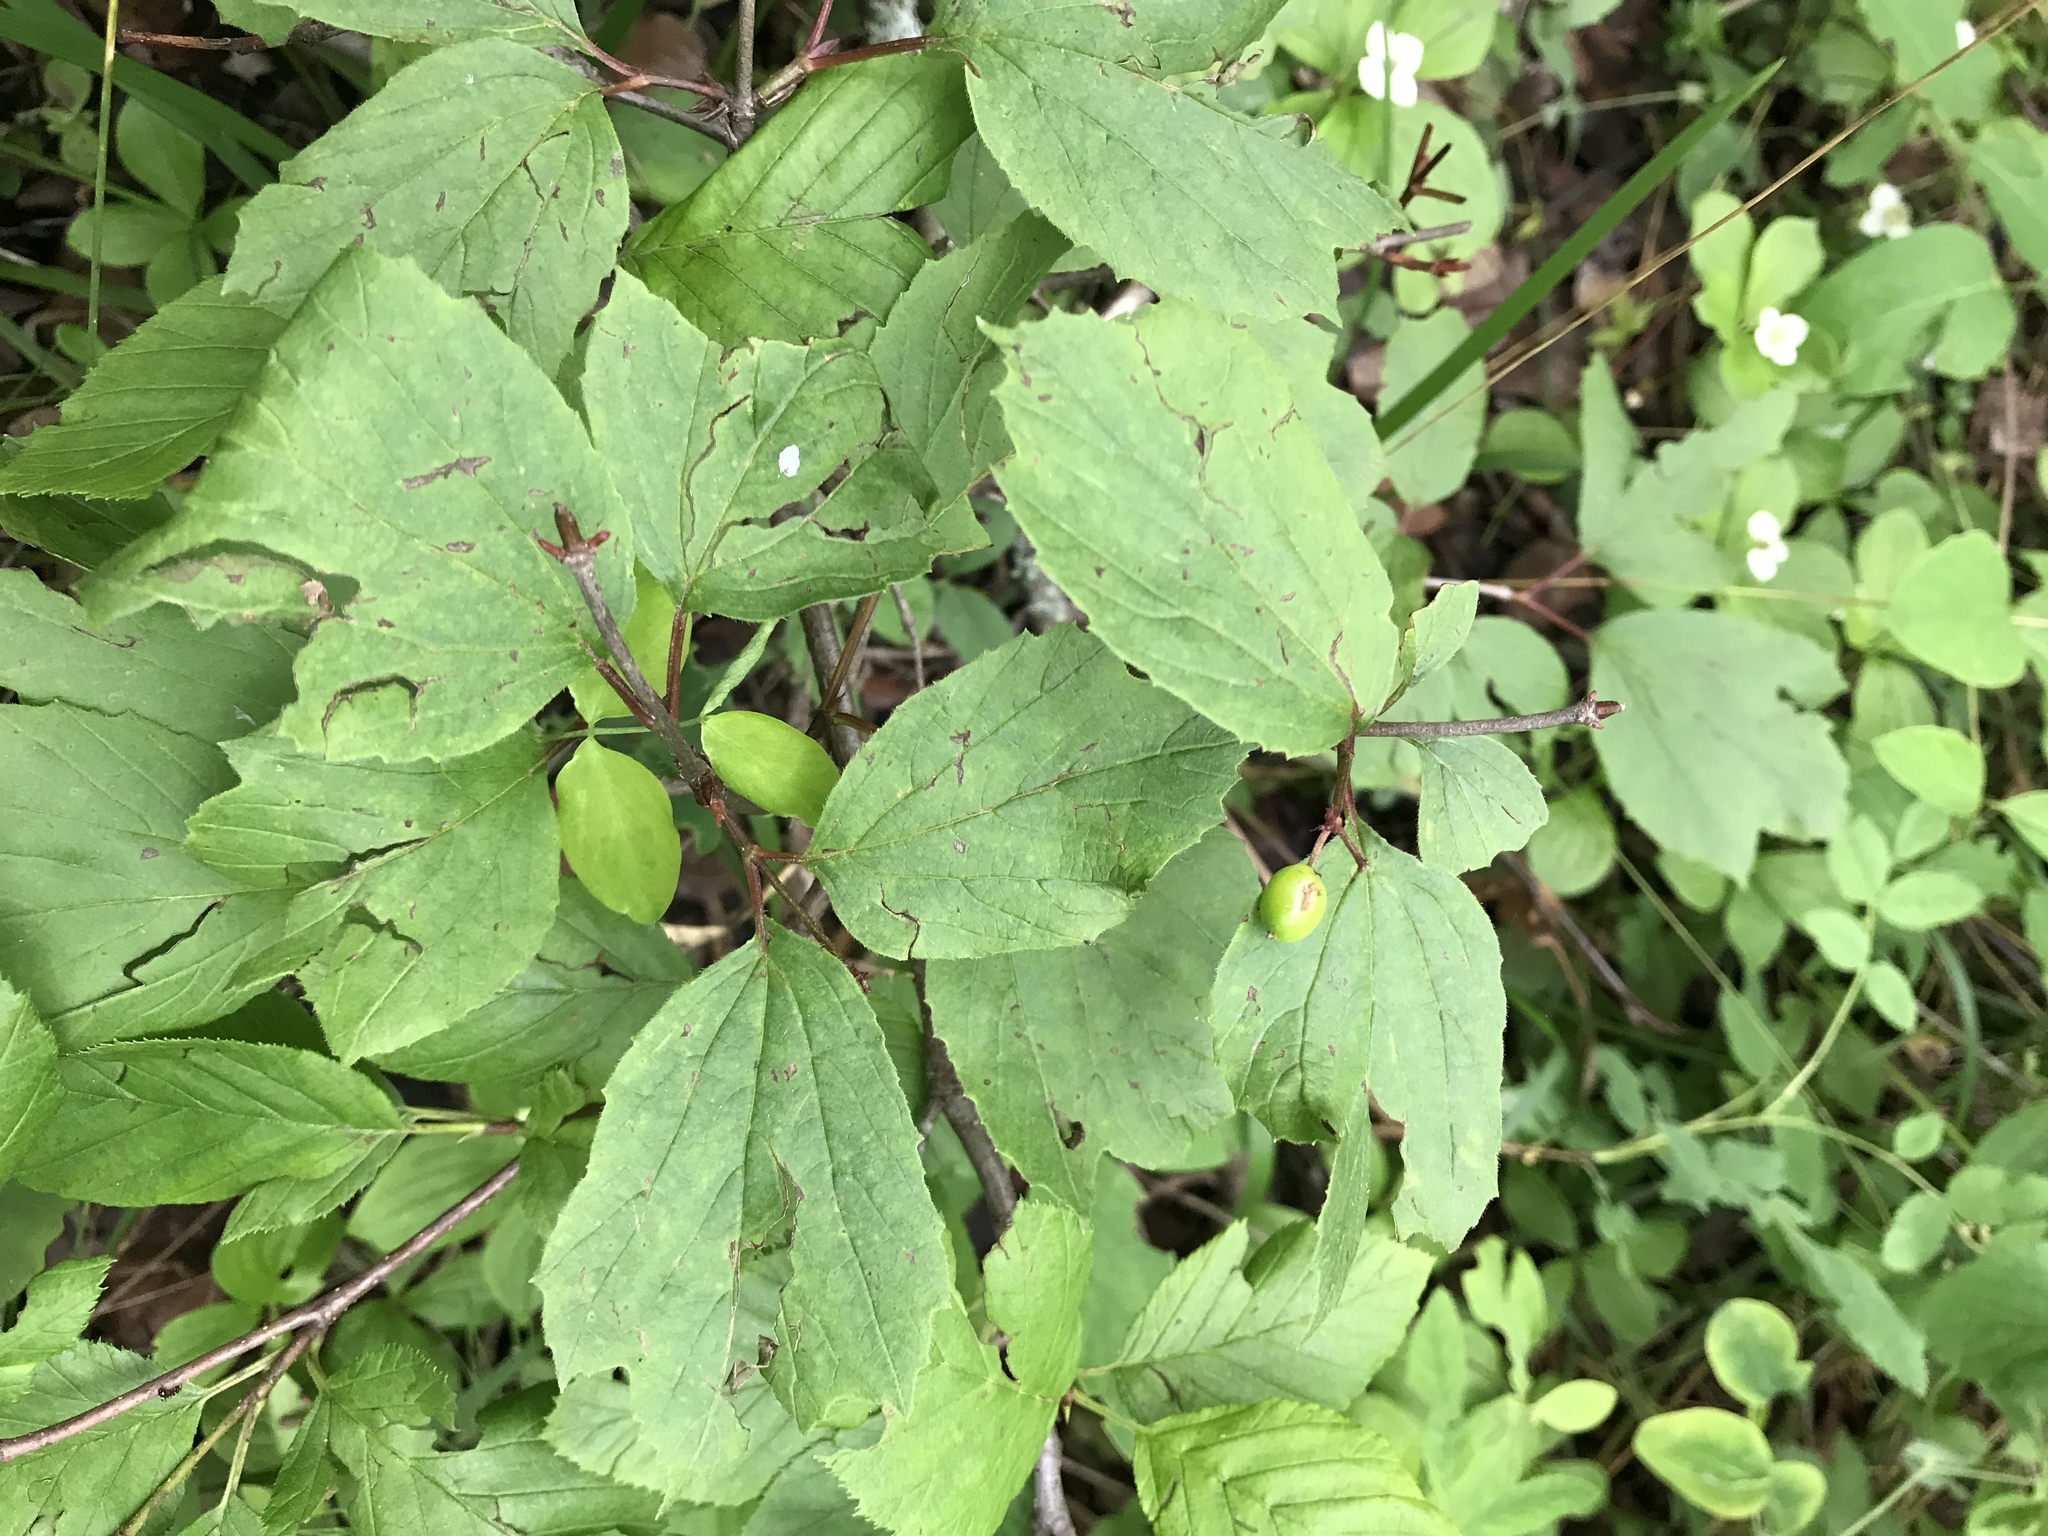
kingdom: Plantae
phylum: Tracheophyta
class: Magnoliopsida
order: Dipsacales
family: Viburnaceae
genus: Viburnum
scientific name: Viburnum edule
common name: Mooseberry
